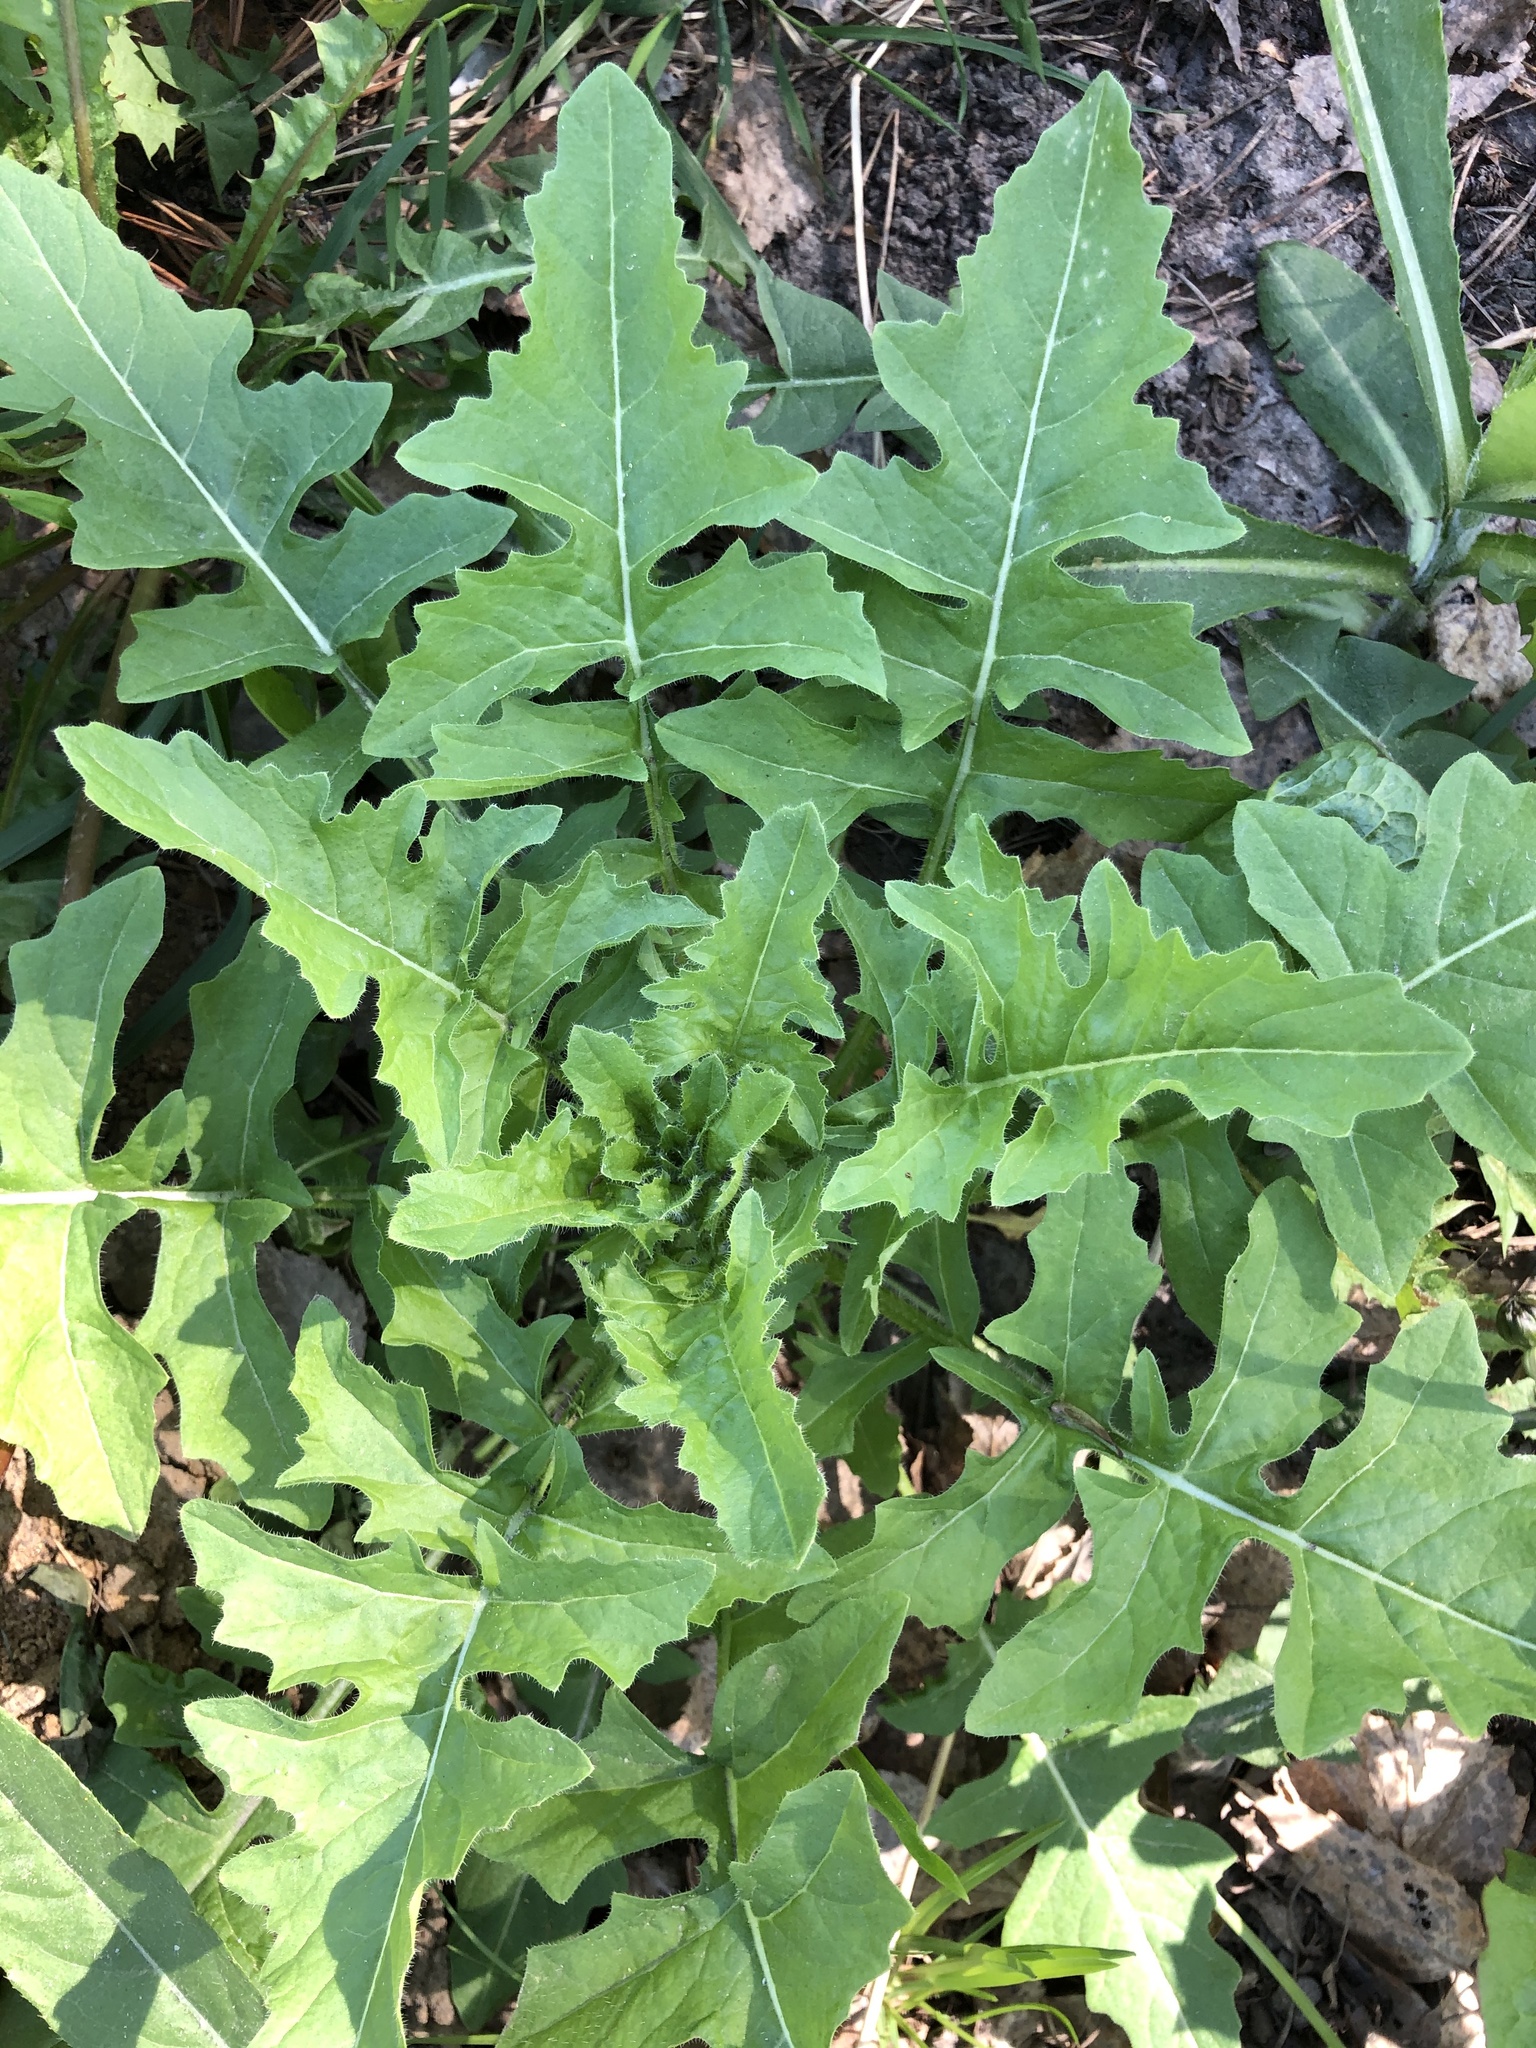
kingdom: Plantae
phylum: Tracheophyta
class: Magnoliopsida
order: Brassicales
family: Brassicaceae
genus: Sisymbrium
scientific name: Sisymbrium loeselii
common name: False london-rocket
